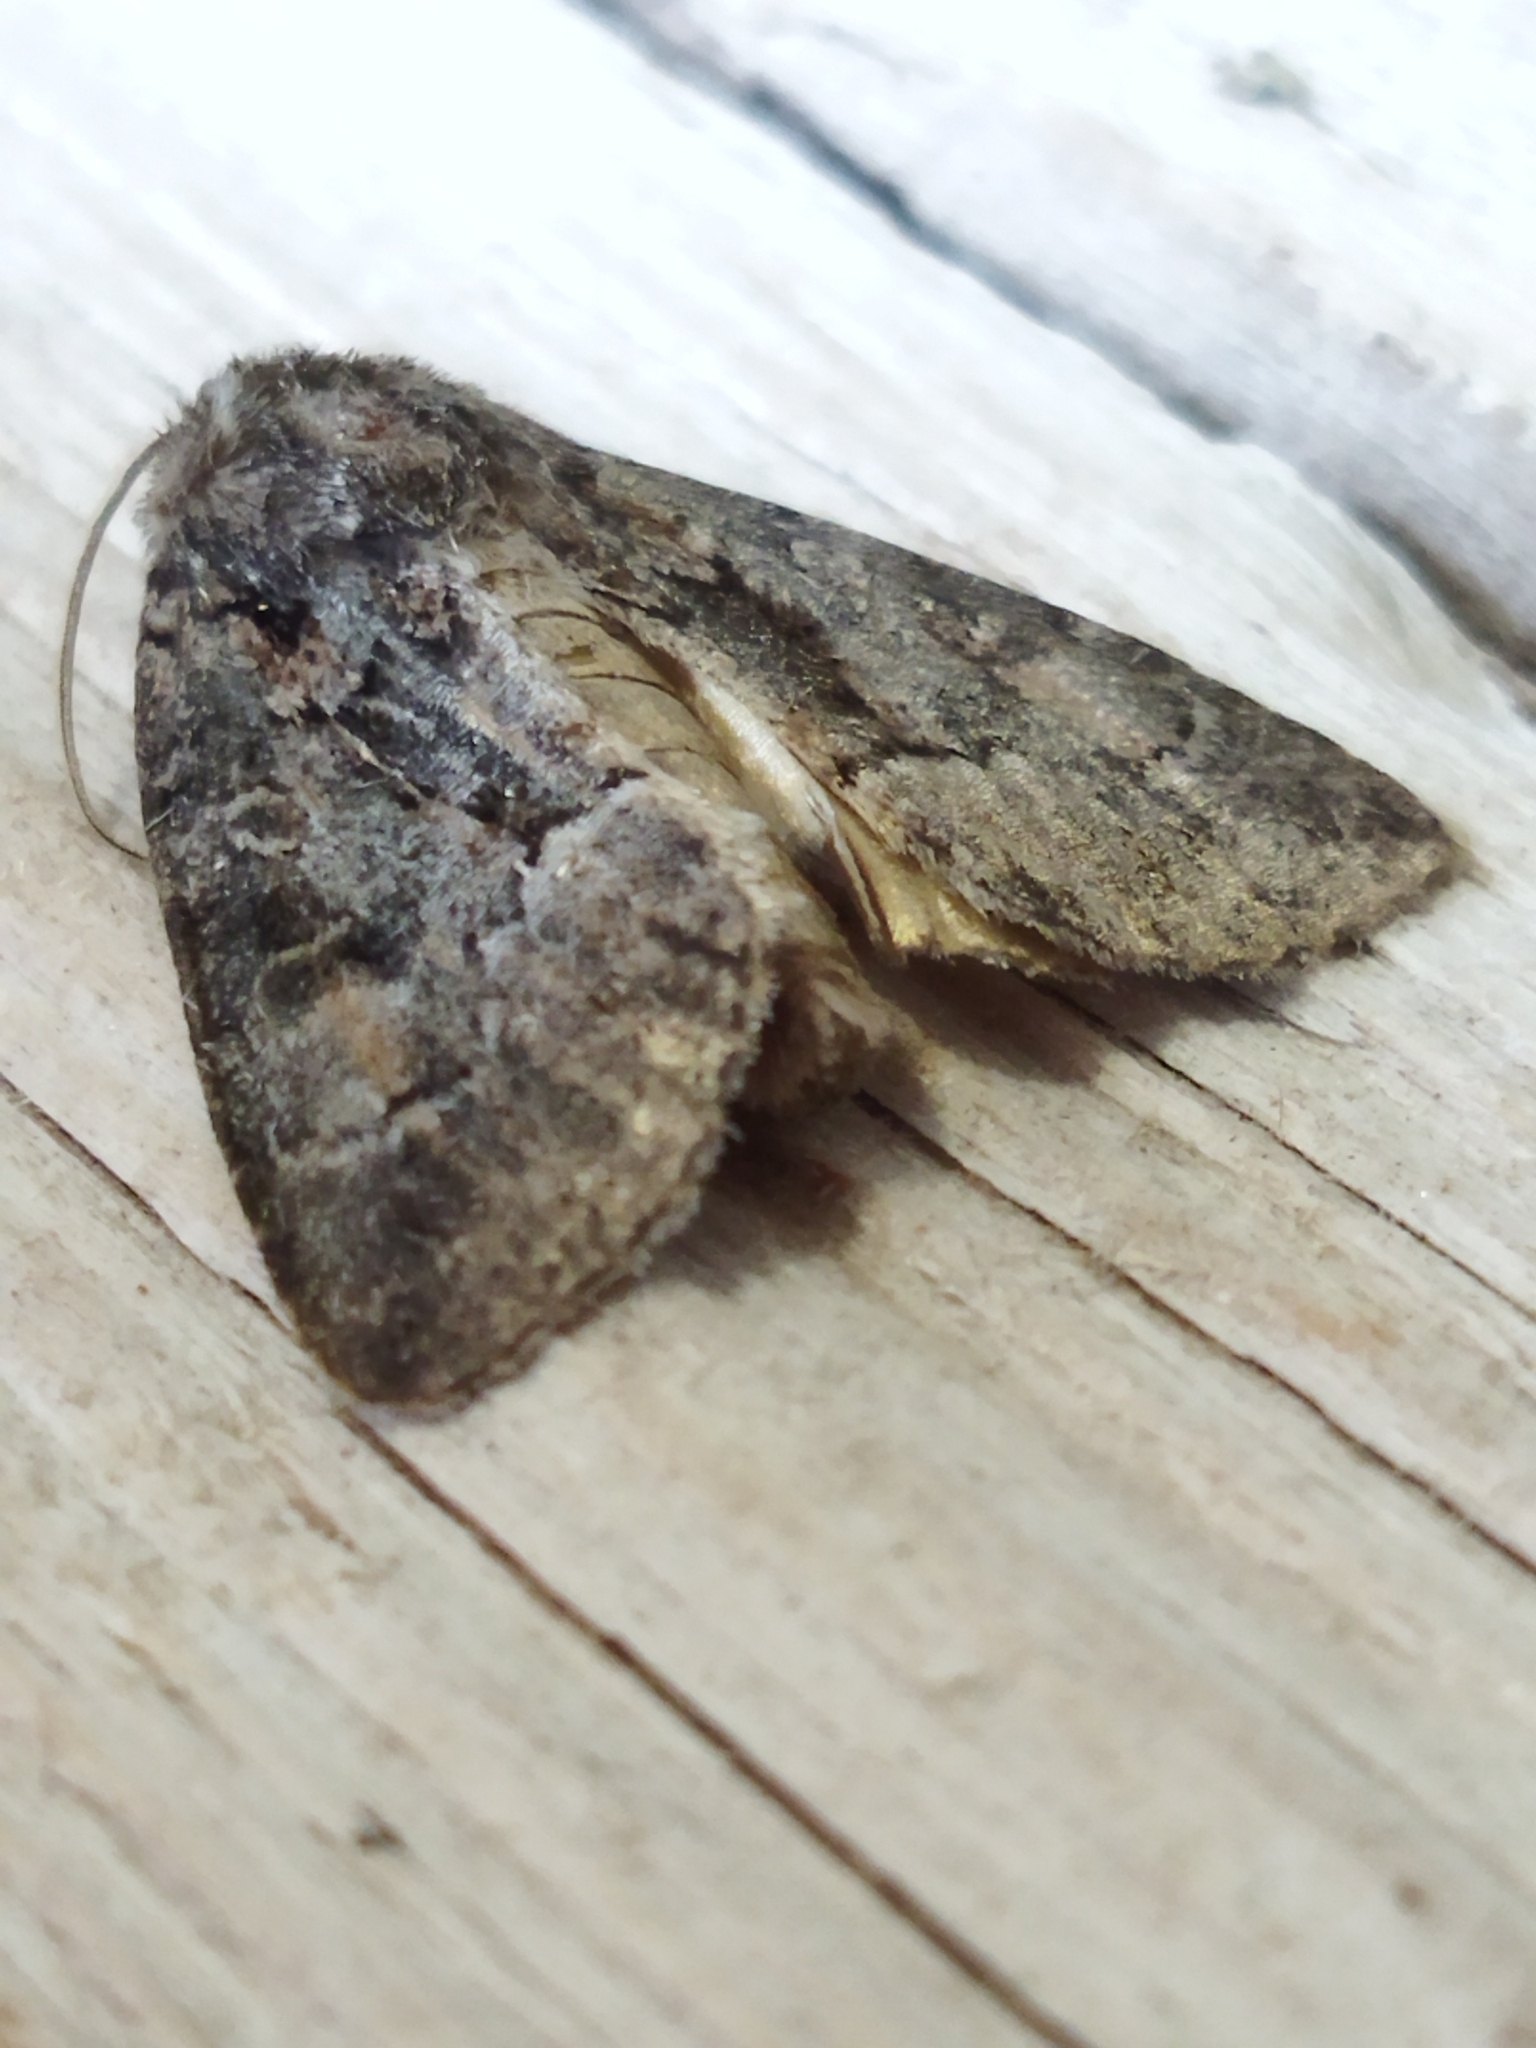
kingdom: Animalia
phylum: Arthropoda
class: Insecta
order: Lepidoptera
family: Noctuidae
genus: Thalpophila
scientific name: Thalpophila matura
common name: Straw underwing
